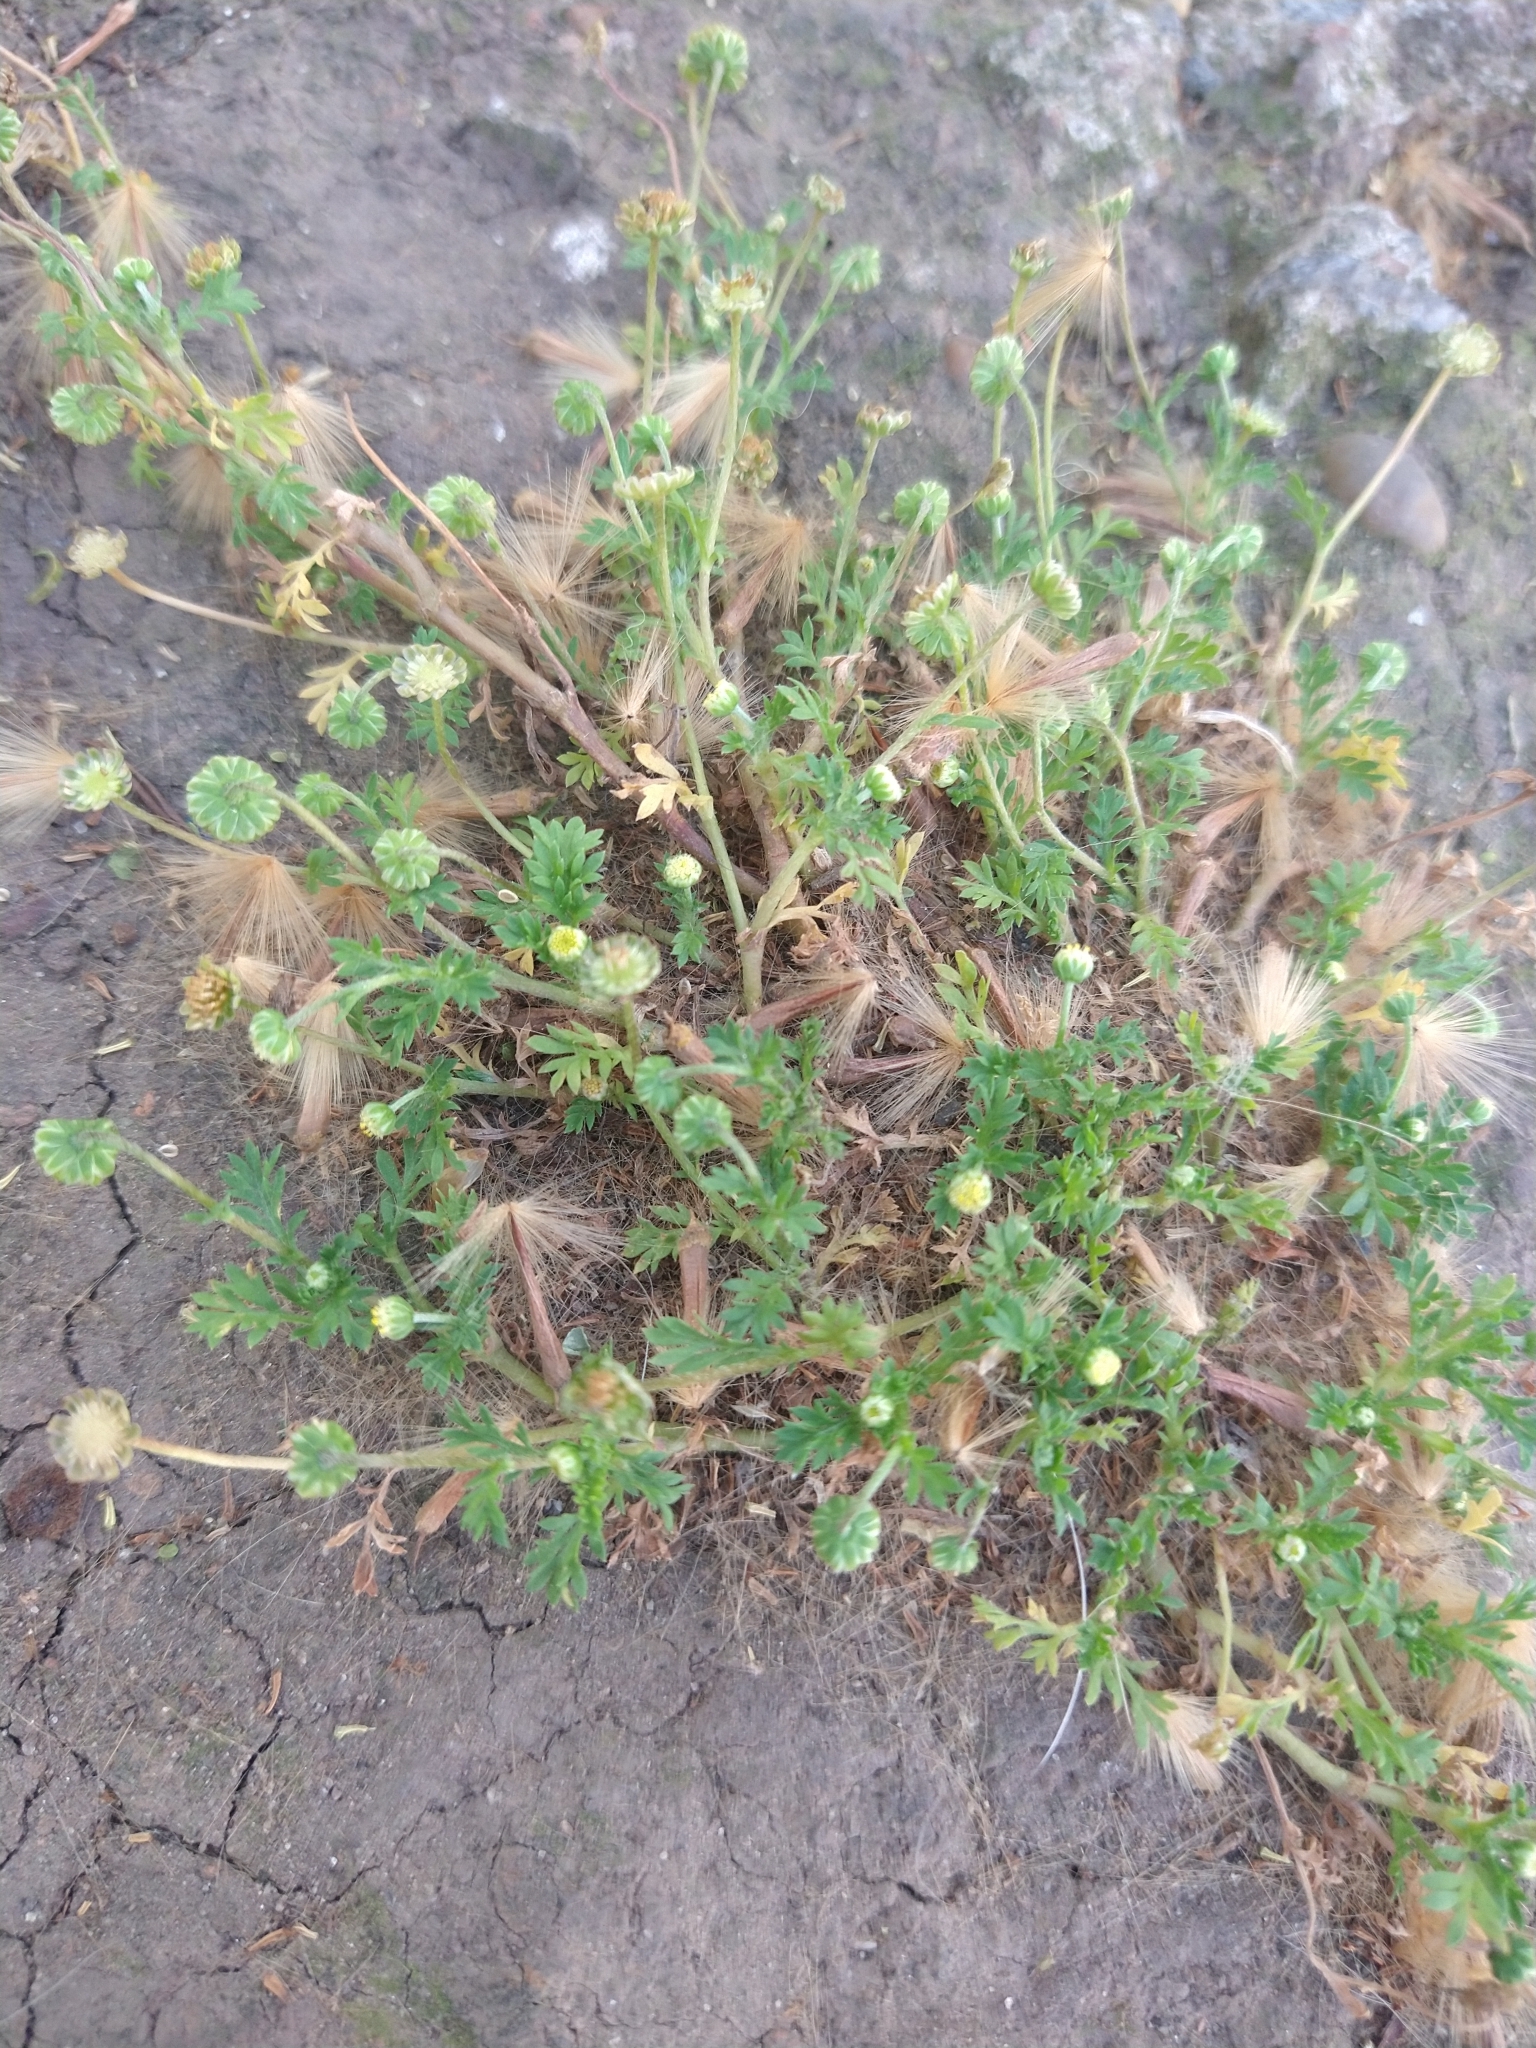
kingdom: Plantae
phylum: Tracheophyta
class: Magnoliopsida
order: Asterales
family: Asteraceae
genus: Cotula
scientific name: Cotula australis
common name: Australian waterbuttons
